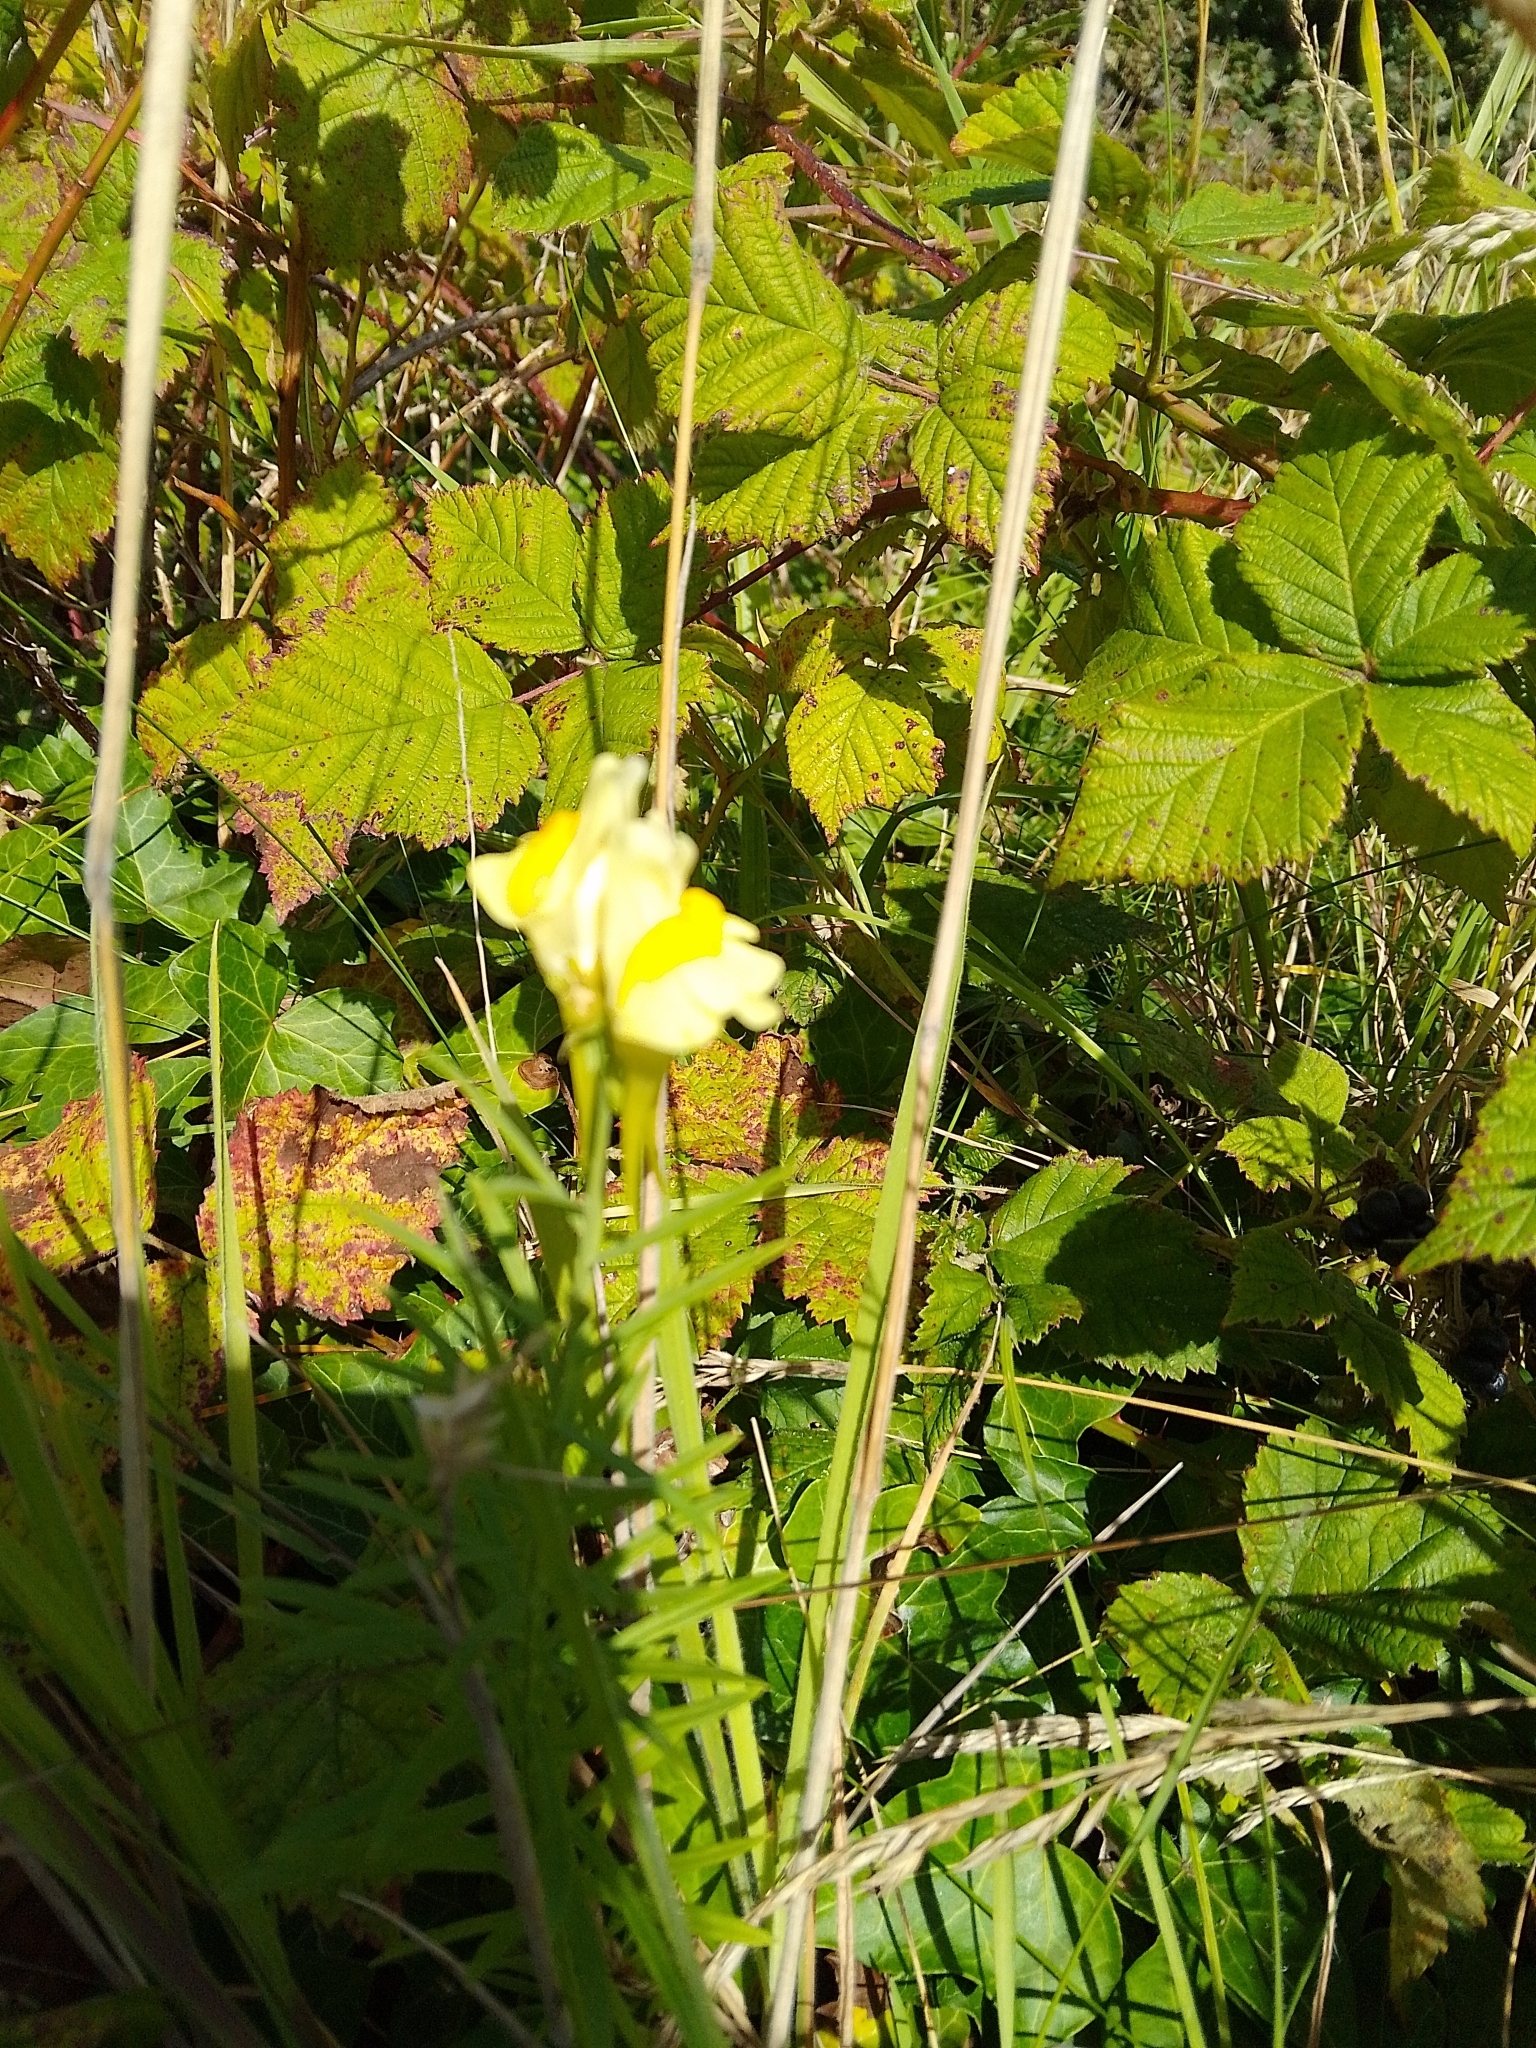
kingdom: Plantae
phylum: Tracheophyta
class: Magnoliopsida
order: Lamiales
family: Plantaginaceae
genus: Linaria
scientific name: Linaria vulgaris
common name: Butter and eggs
